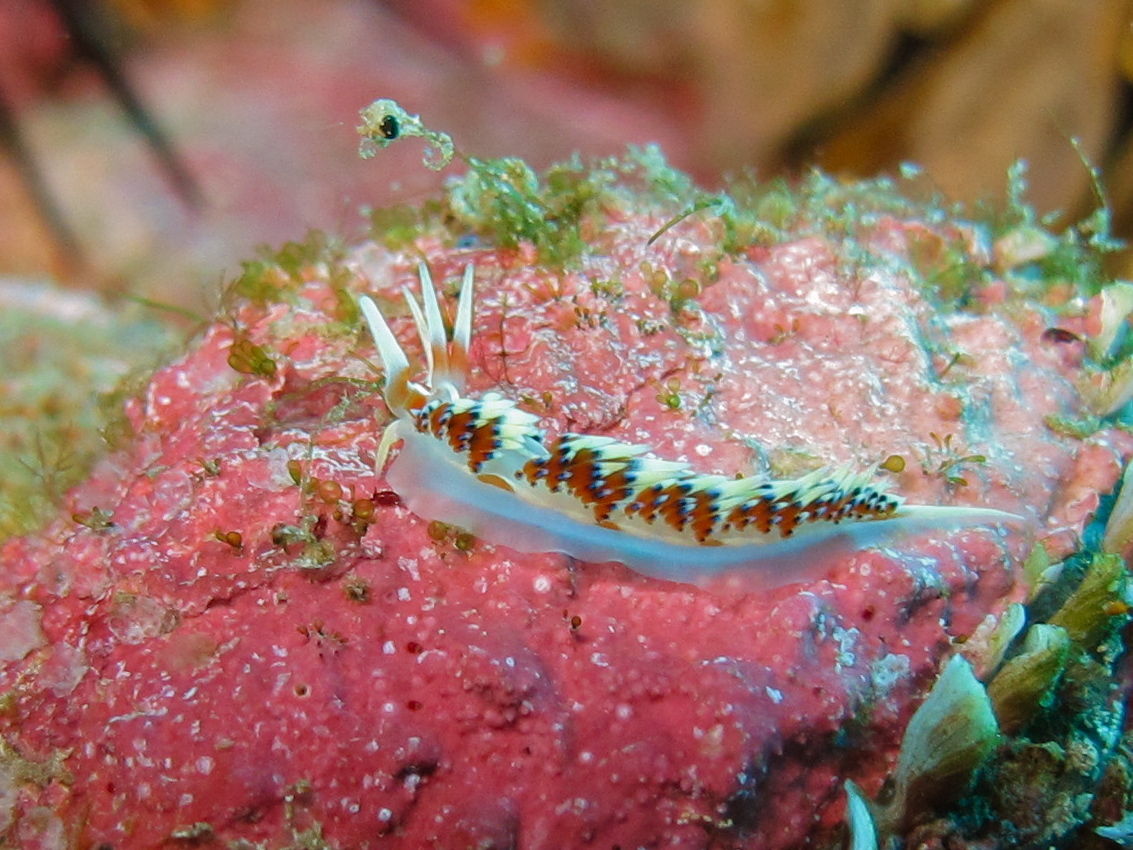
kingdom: Animalia
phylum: Mollusca
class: Gastropoda
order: Nudibranchia
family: Facelinidae
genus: Caloria
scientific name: Caloria indica
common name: Sea slug
